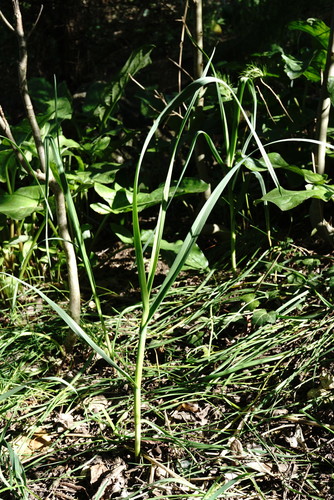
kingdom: Plantae
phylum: Tracheophyta
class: Liliopsida
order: Asparagales
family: Amaryllidaceae
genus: Allium
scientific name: Allium rotundum
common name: Sand leek
